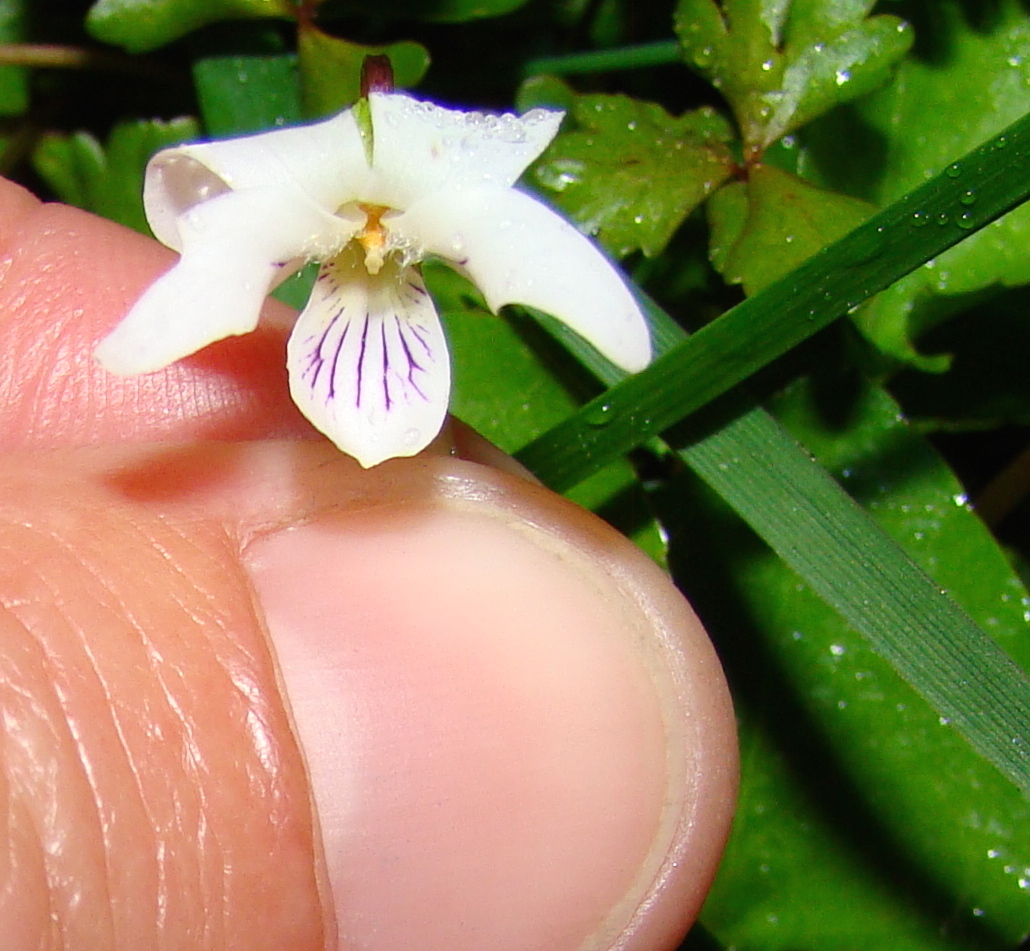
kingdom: Plantae
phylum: Tracheophyta
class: Magnoliopsida
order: Malpighiales
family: Violaceae
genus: Viola
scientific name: Viola cunninghamii
